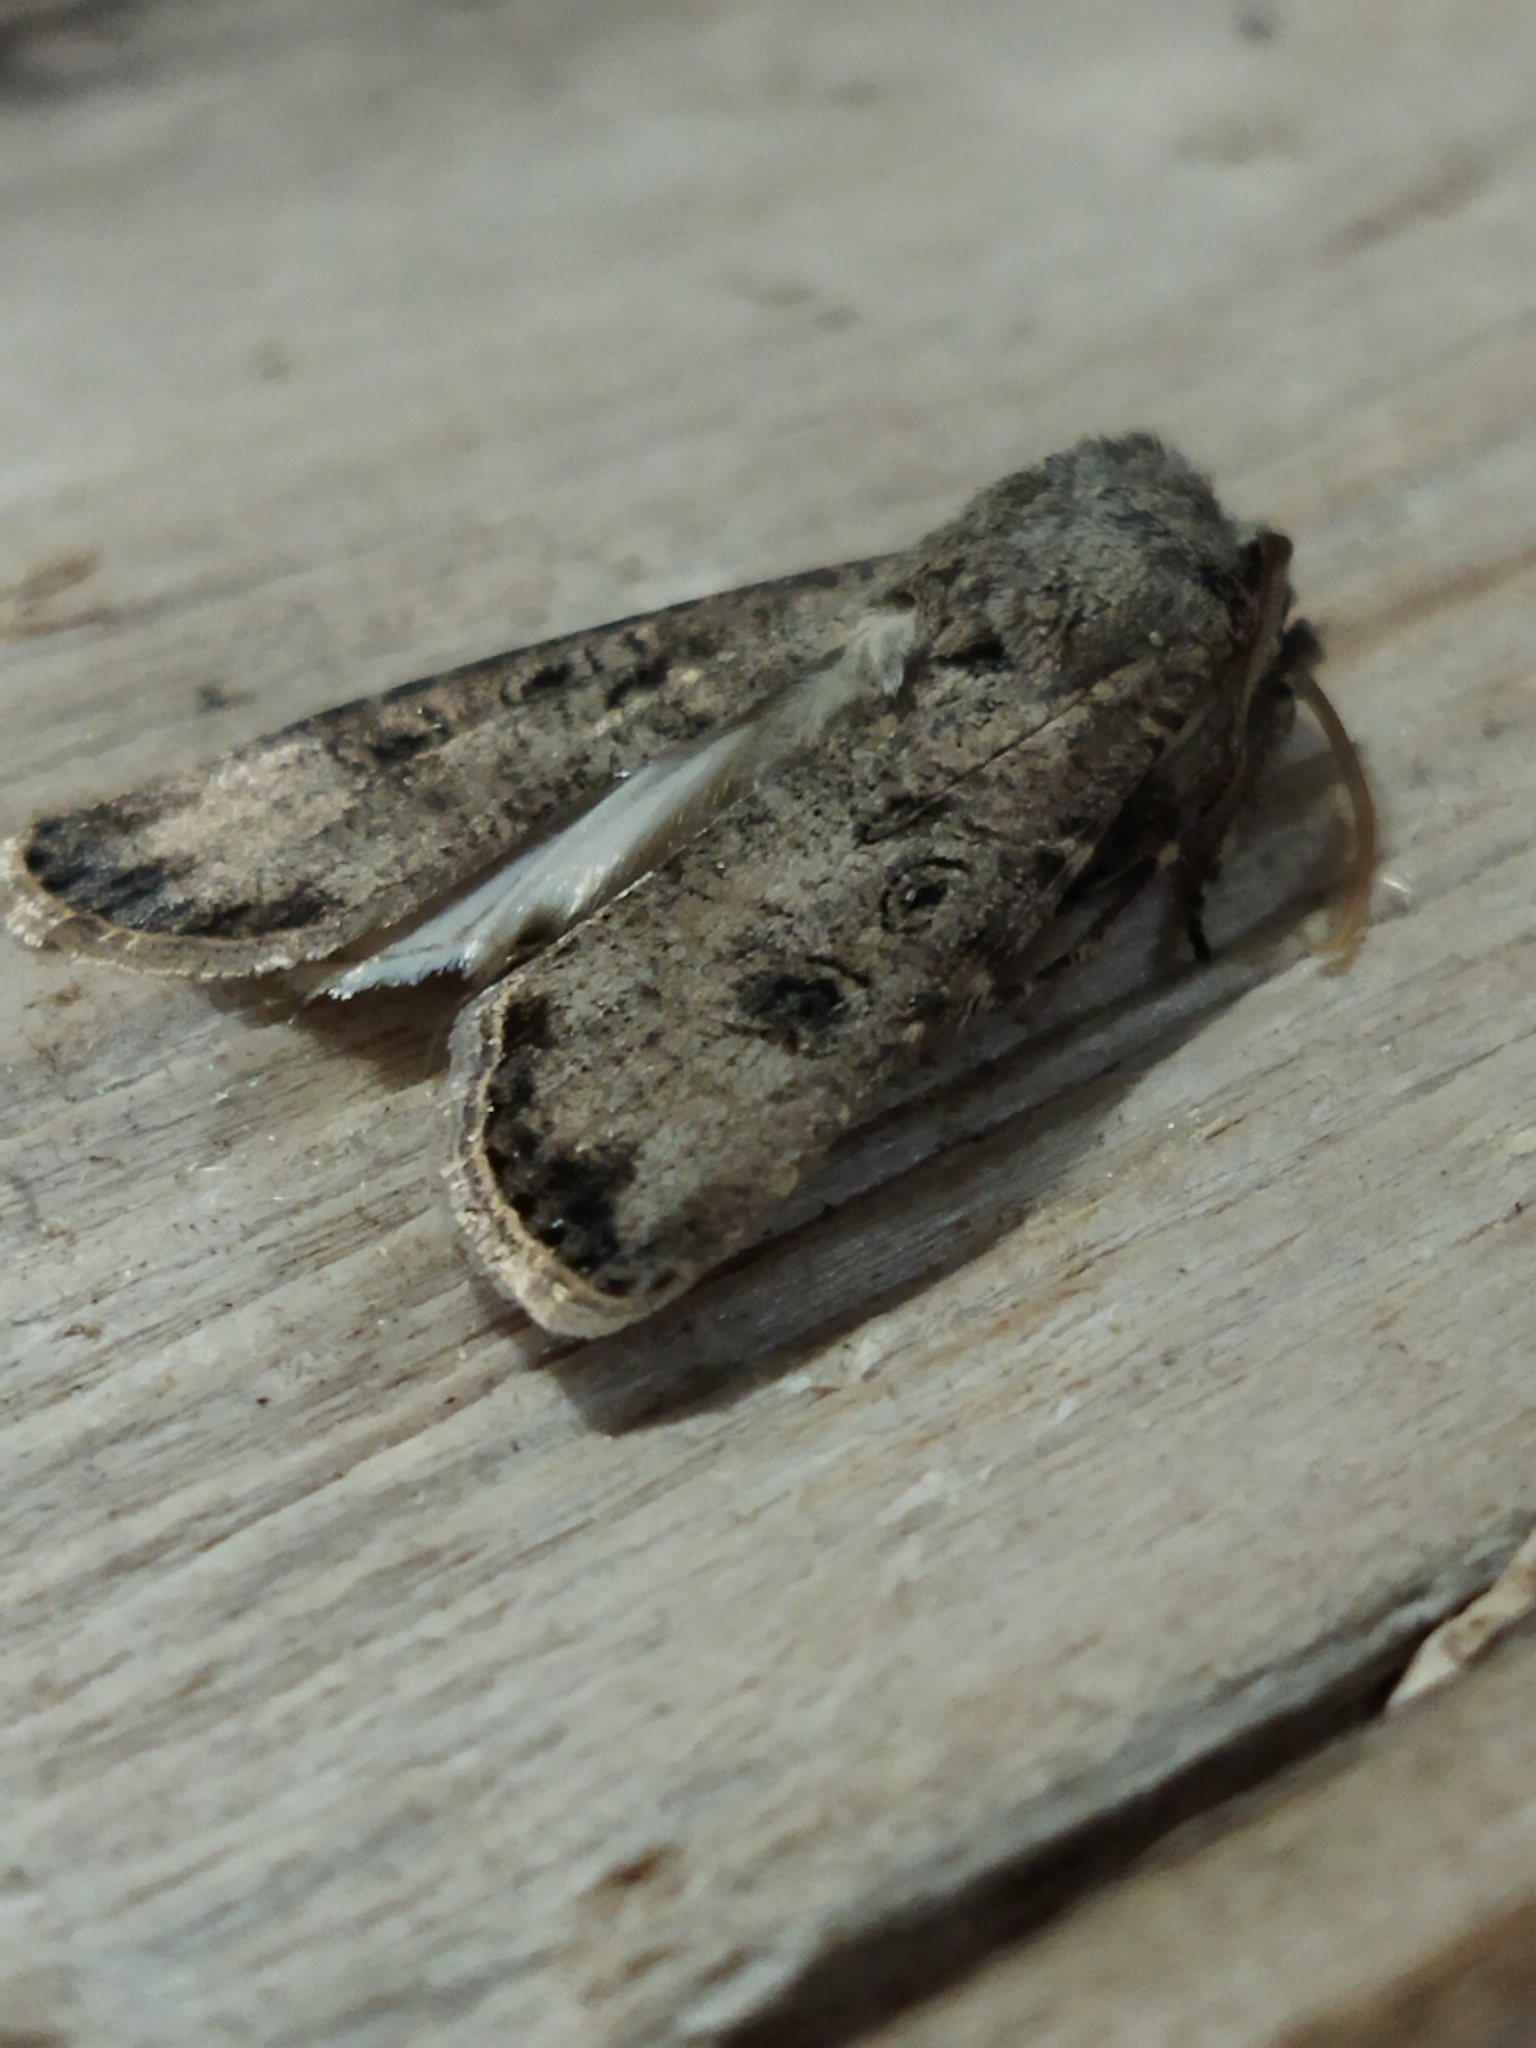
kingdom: Animalia
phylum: Arthropoda
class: Insecta
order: Lepidoptera
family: Noctuidae
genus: Agrotis
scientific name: Agrotis segetum
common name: Turnip moth
